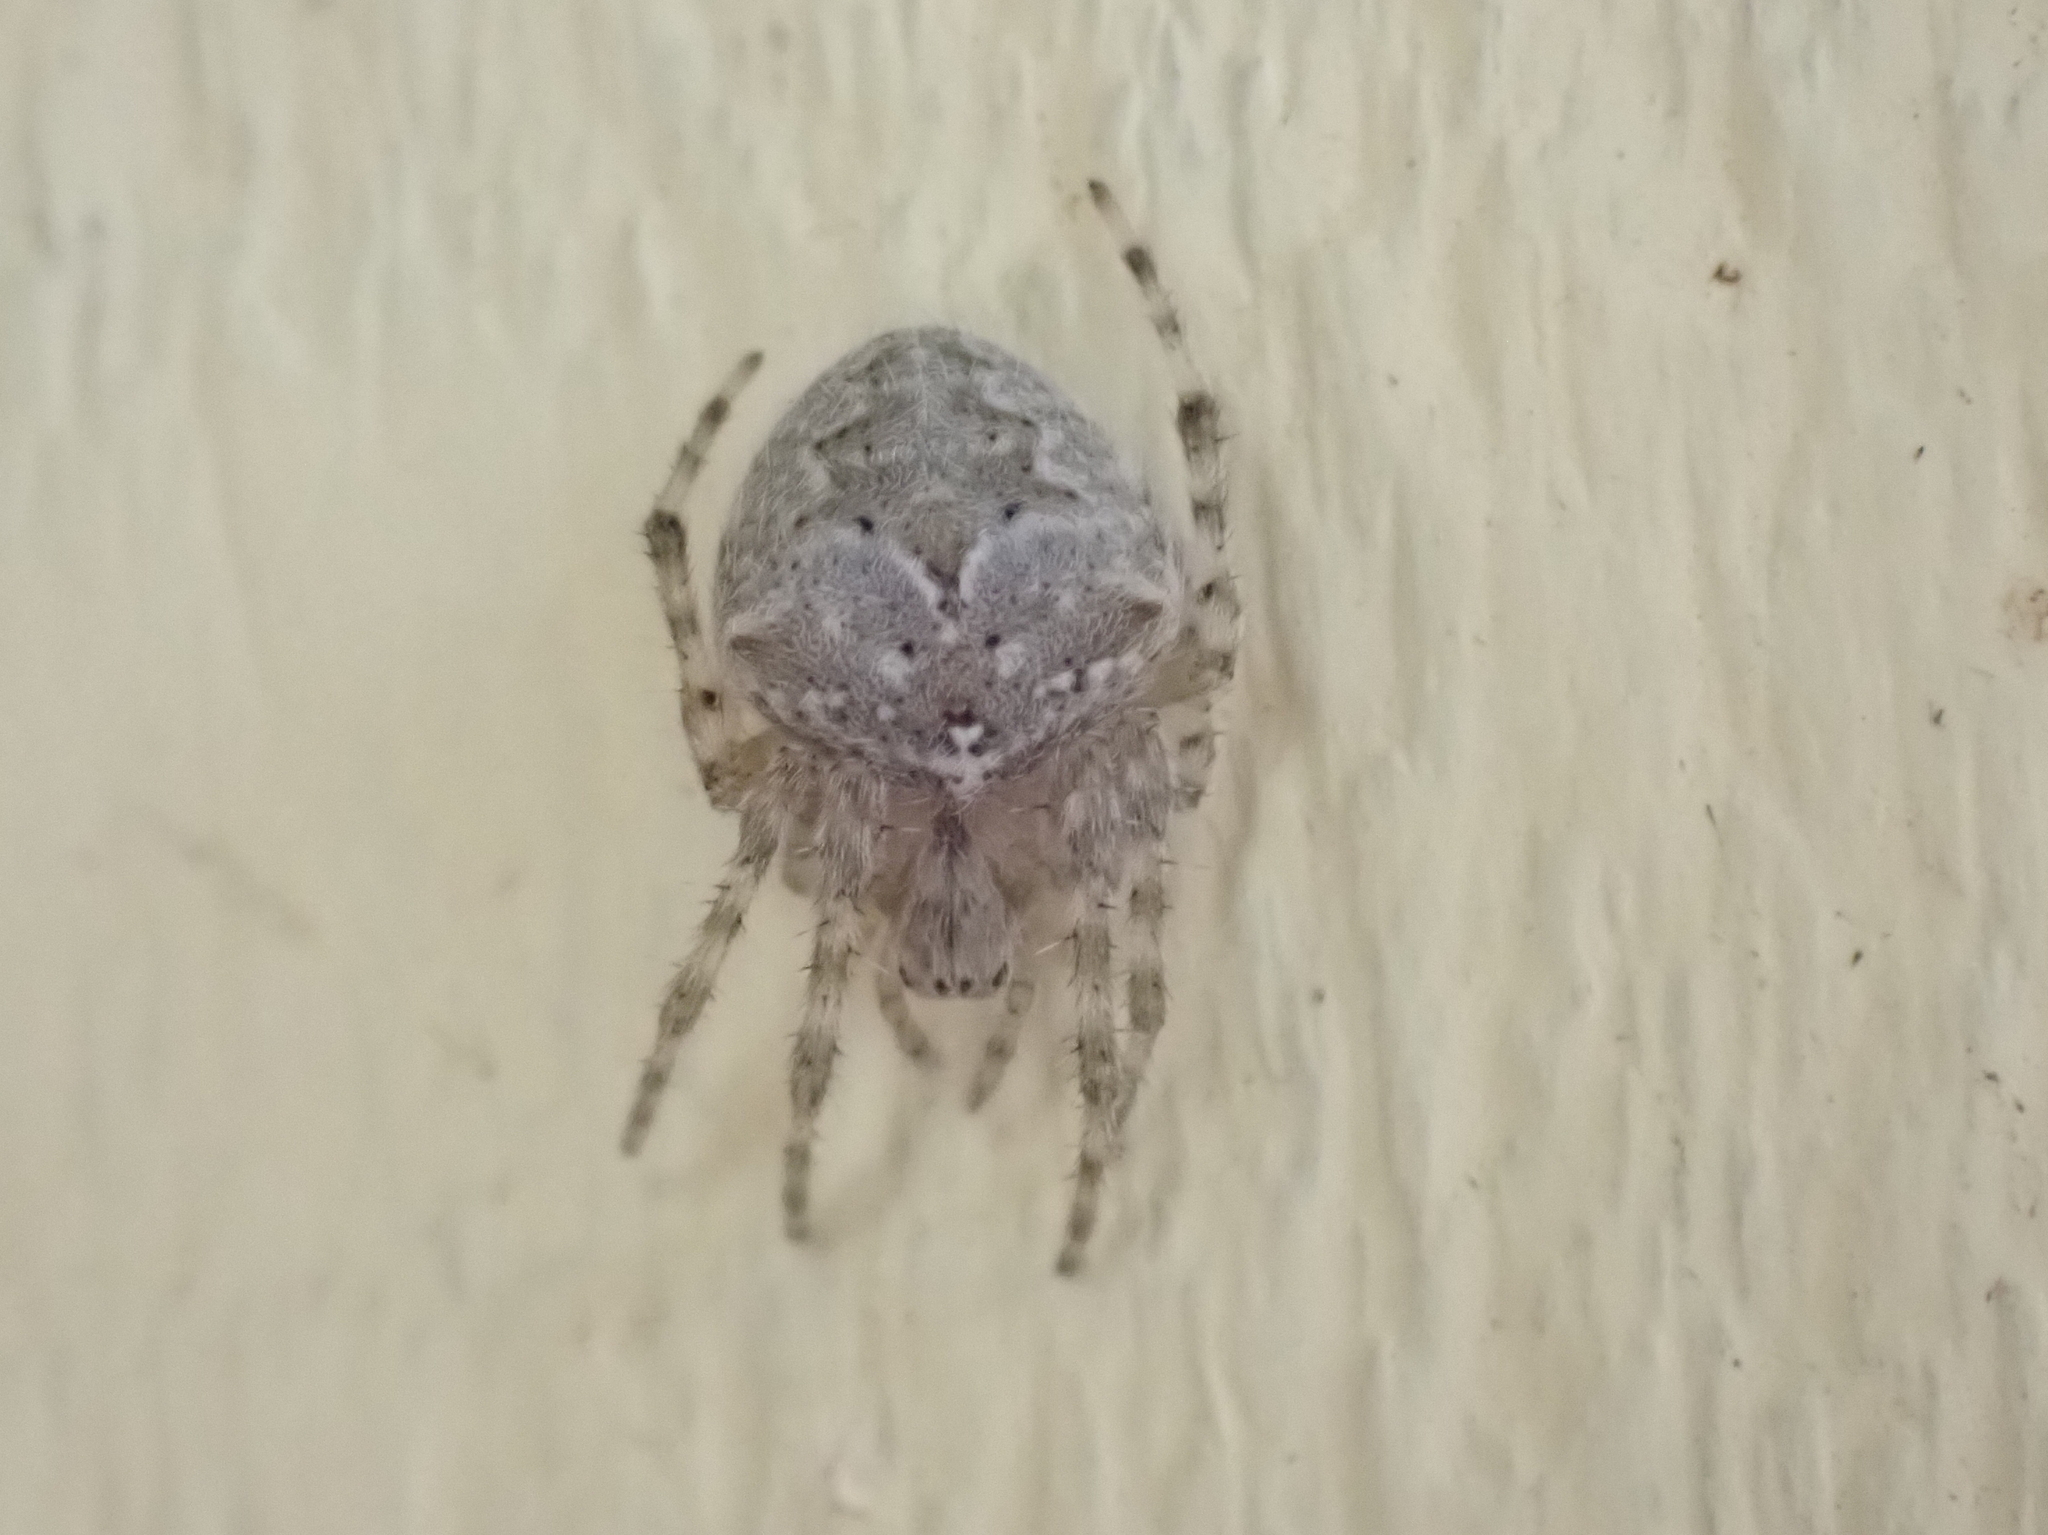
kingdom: Animalia
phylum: Arthropoda
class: Arachnida
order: Araneae
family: Araneidae
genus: Araneus
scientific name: Araneus cavaticus
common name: Barn orbweaver
